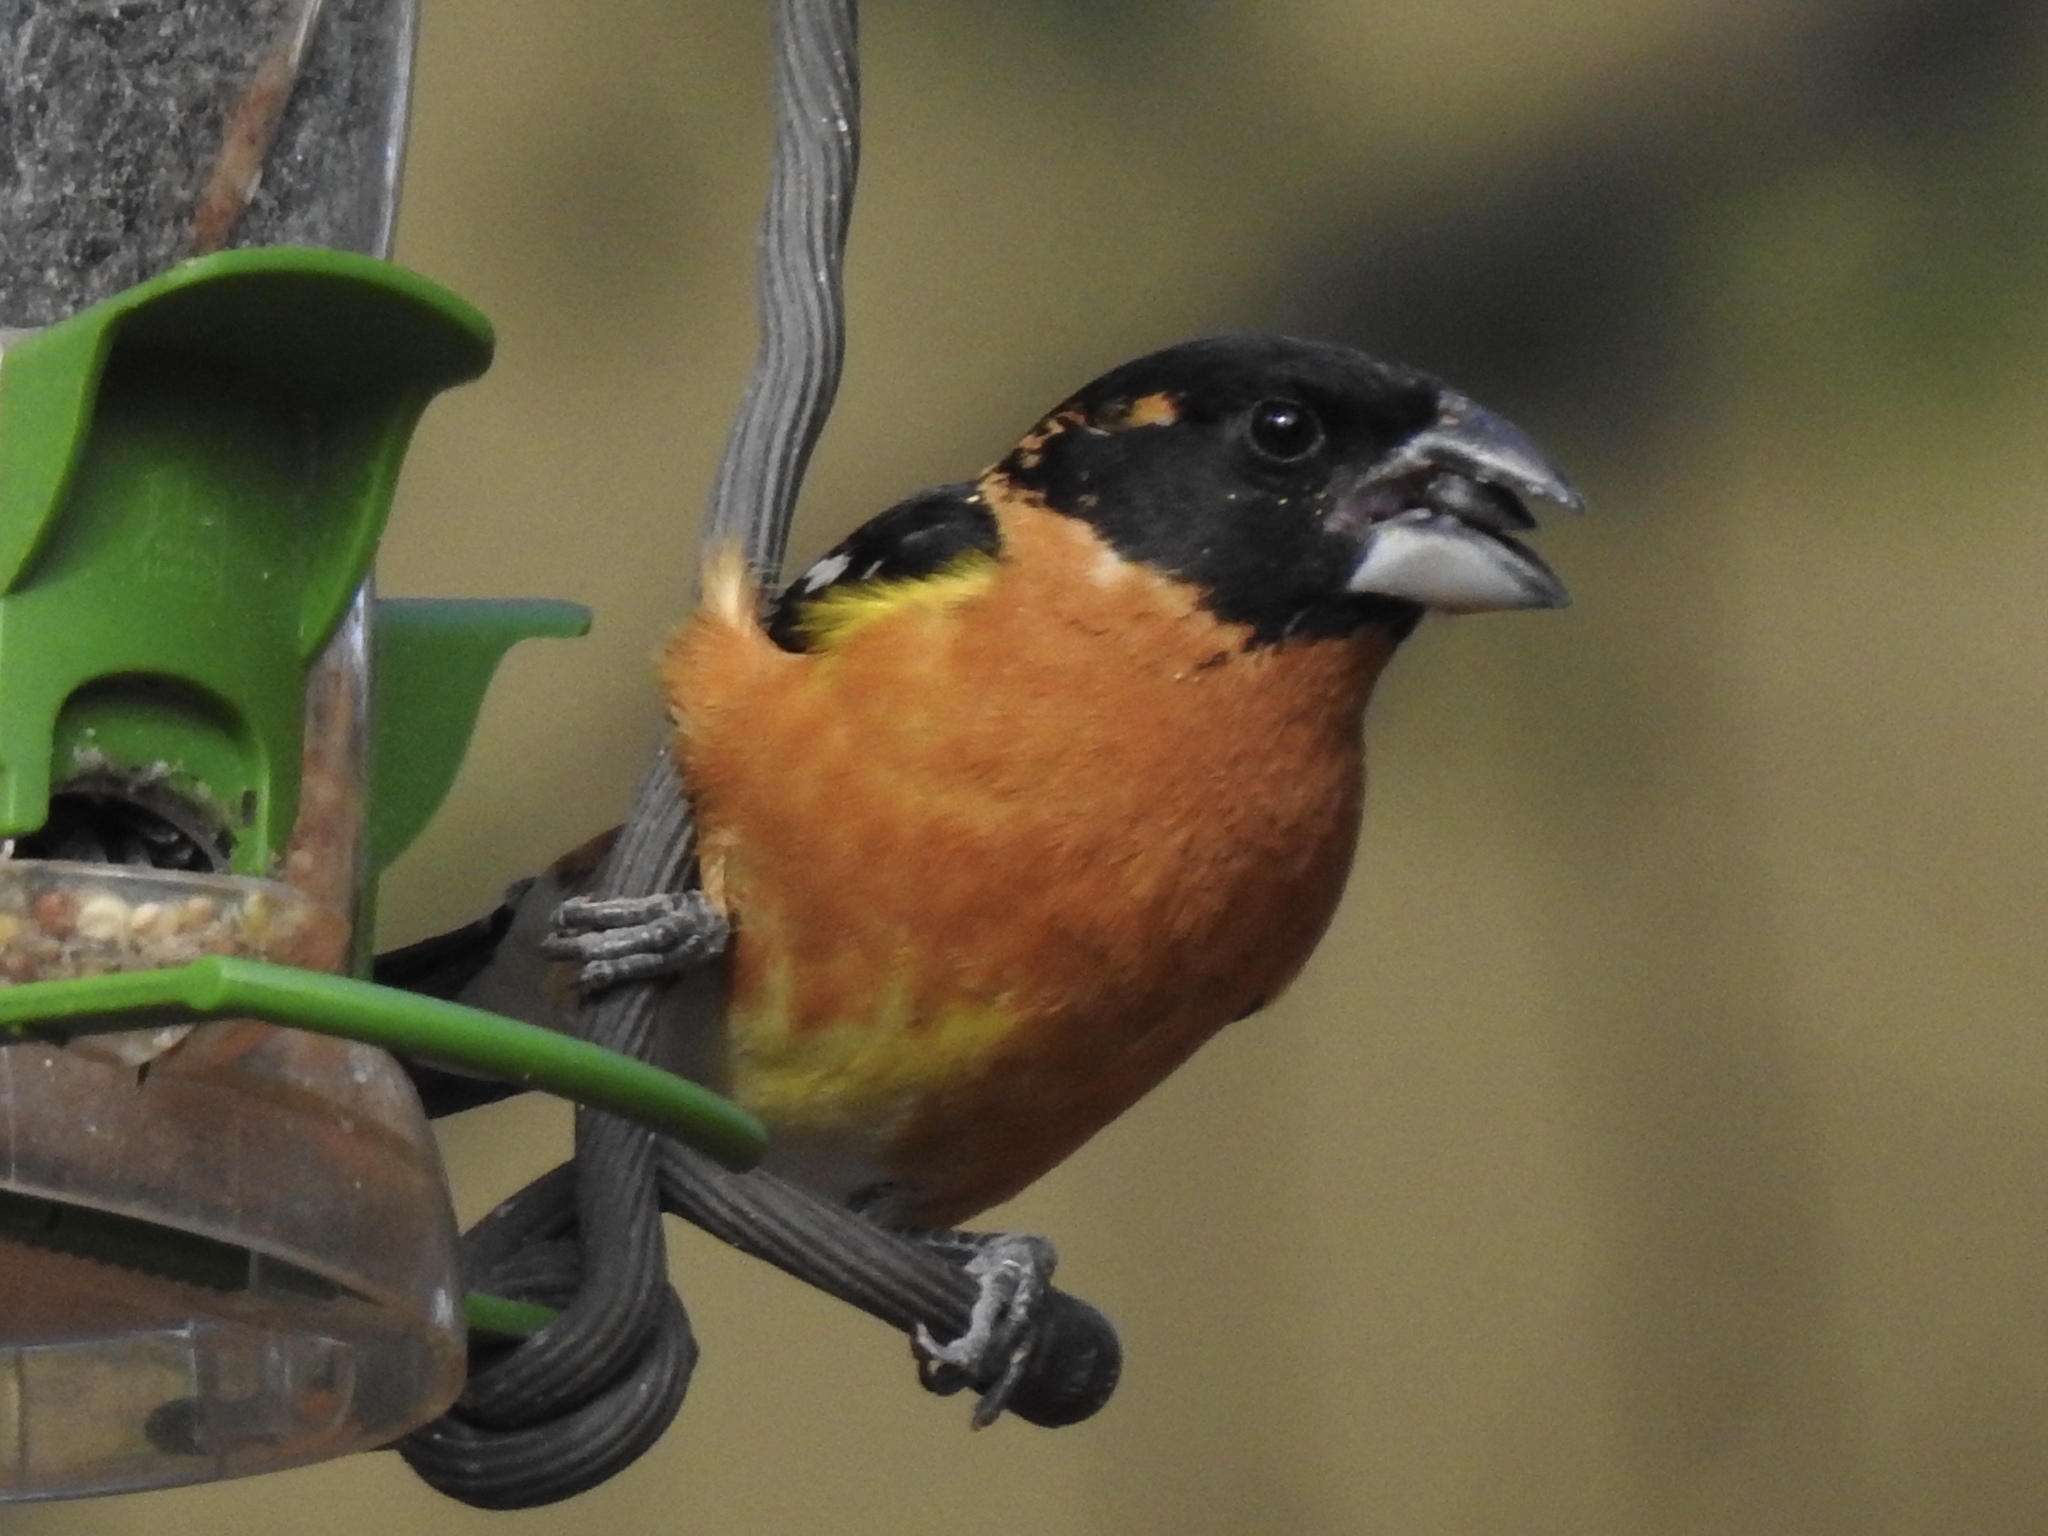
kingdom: Animalia
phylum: Chordata
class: Aves
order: Passeriformes
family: Cardinalidae
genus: Pheucticus
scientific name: Pheucticus melanocephalus
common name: Black-headed grosbeak
